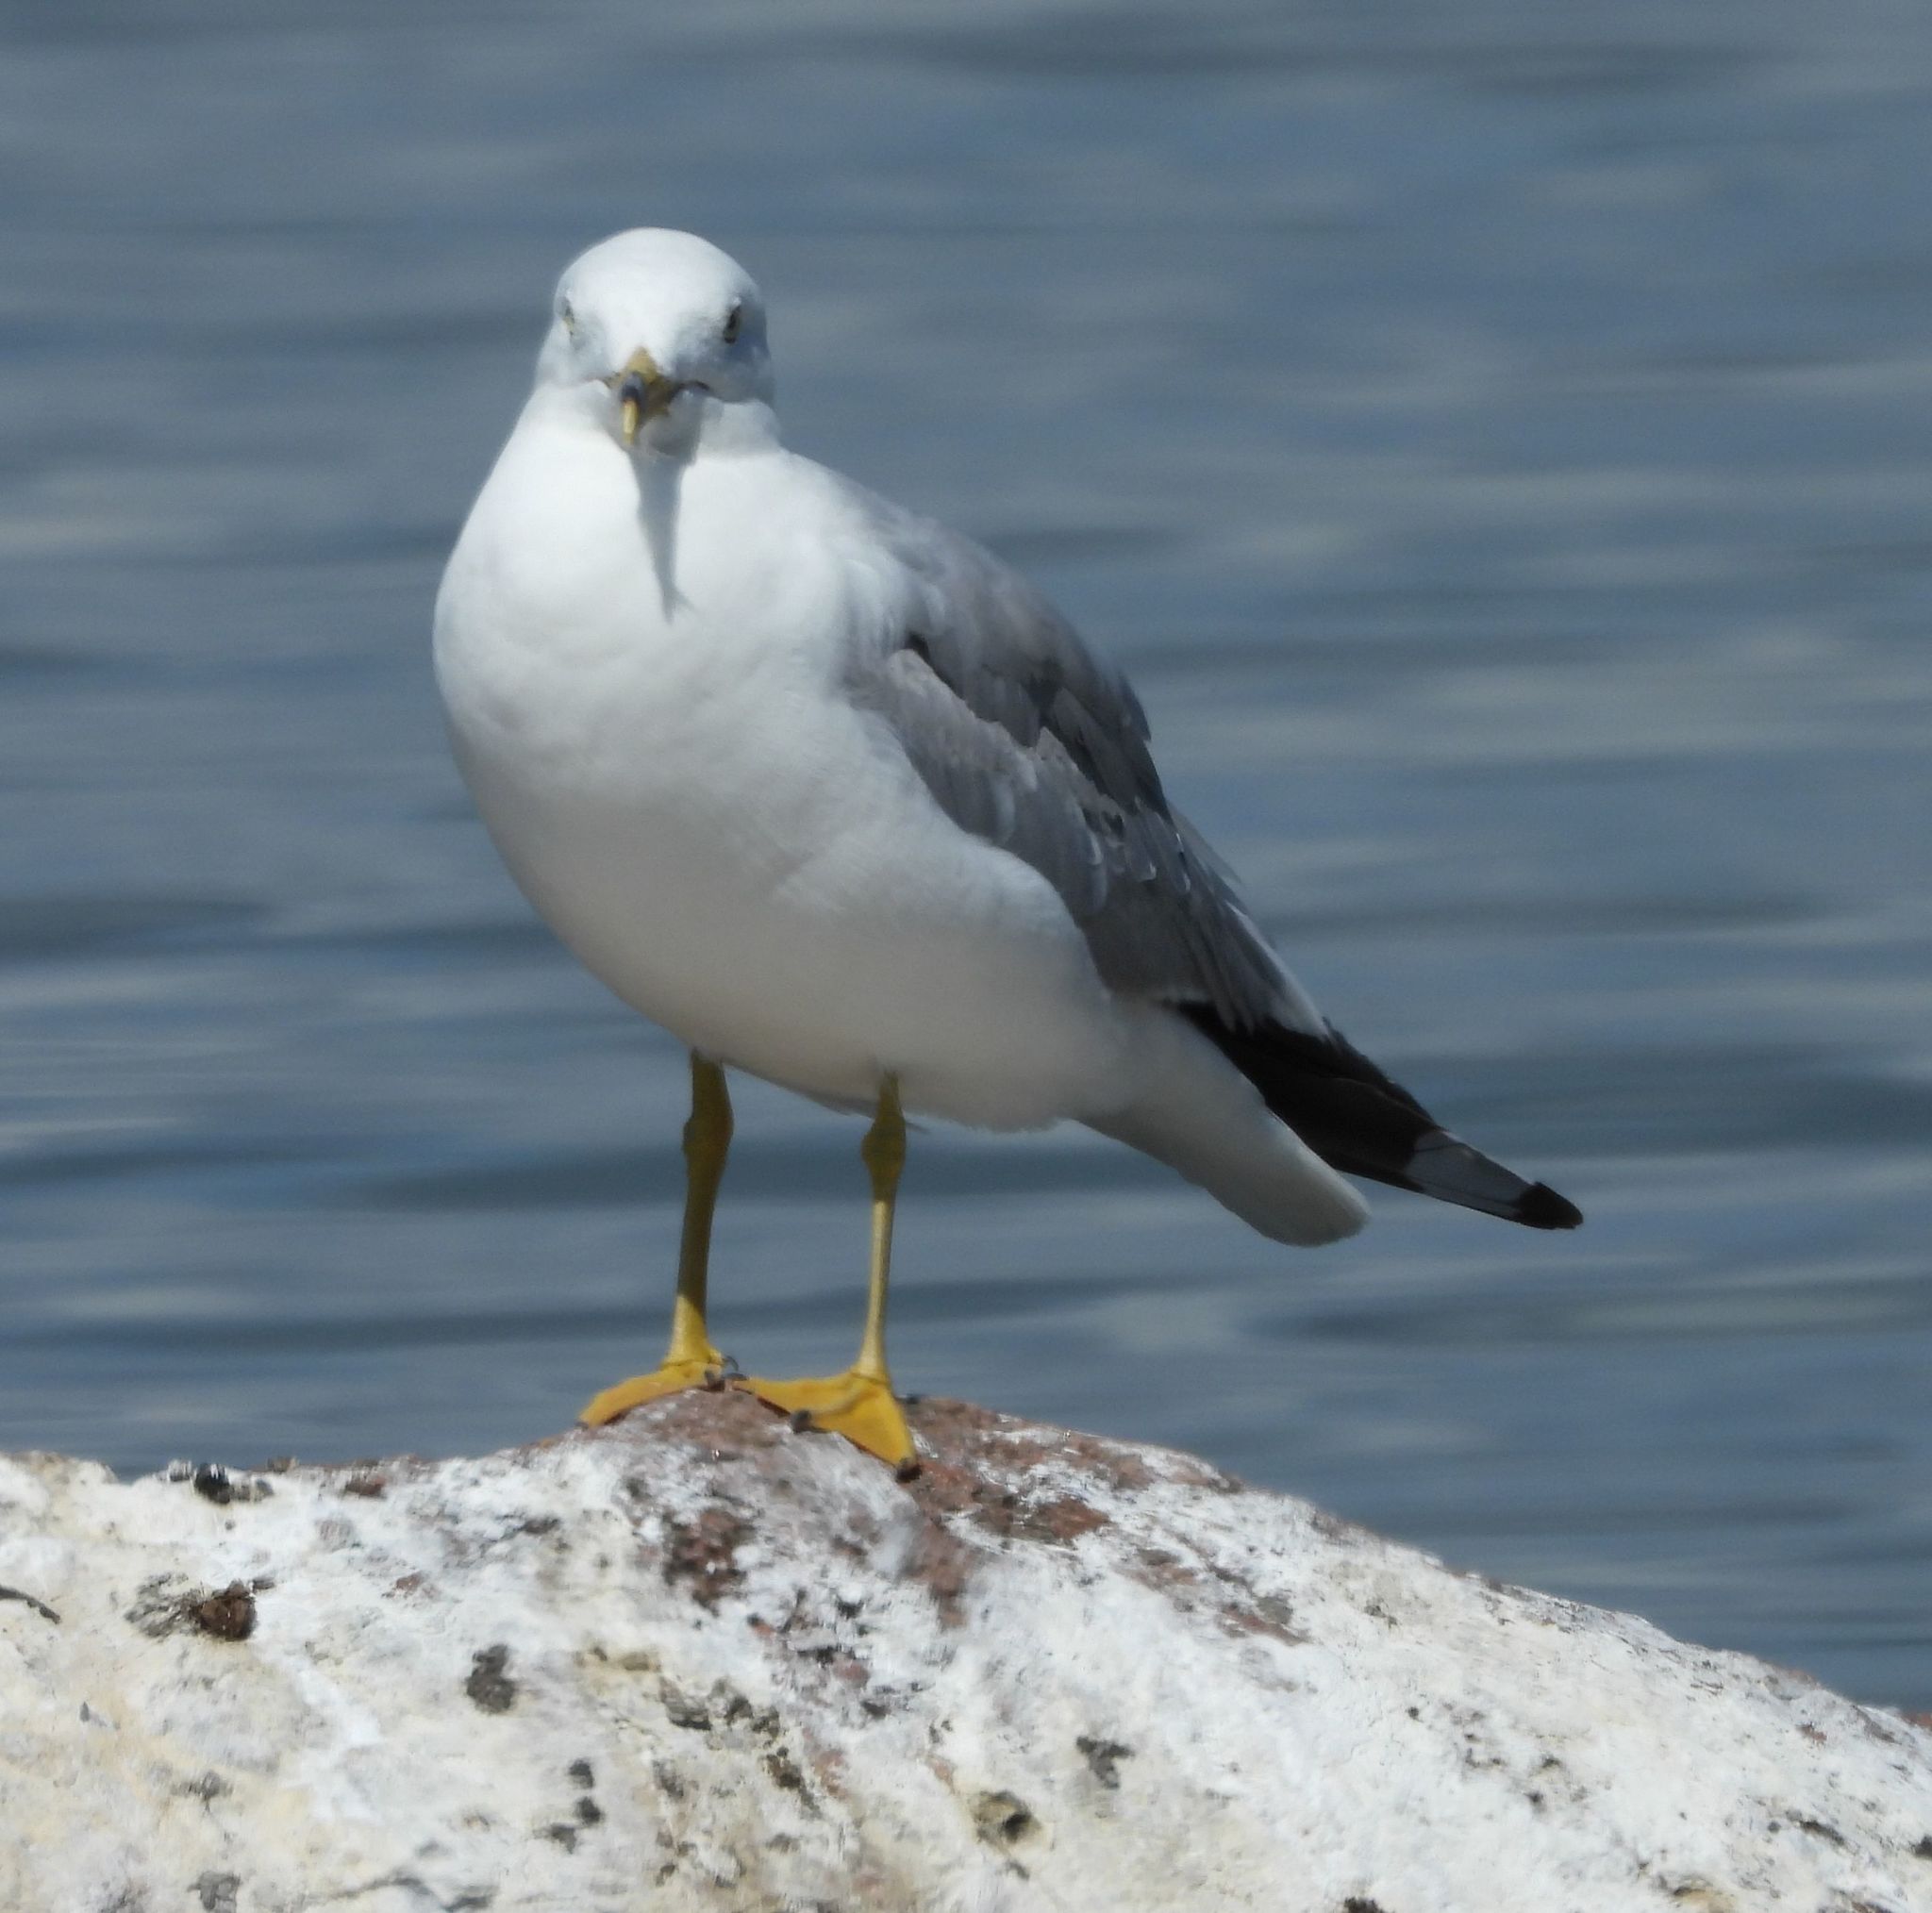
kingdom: Animalia
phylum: Chordata
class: Aves
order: Charadriiformes
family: Laridae
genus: Larus
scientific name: Larus delawarensis
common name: Ring-billed gull
